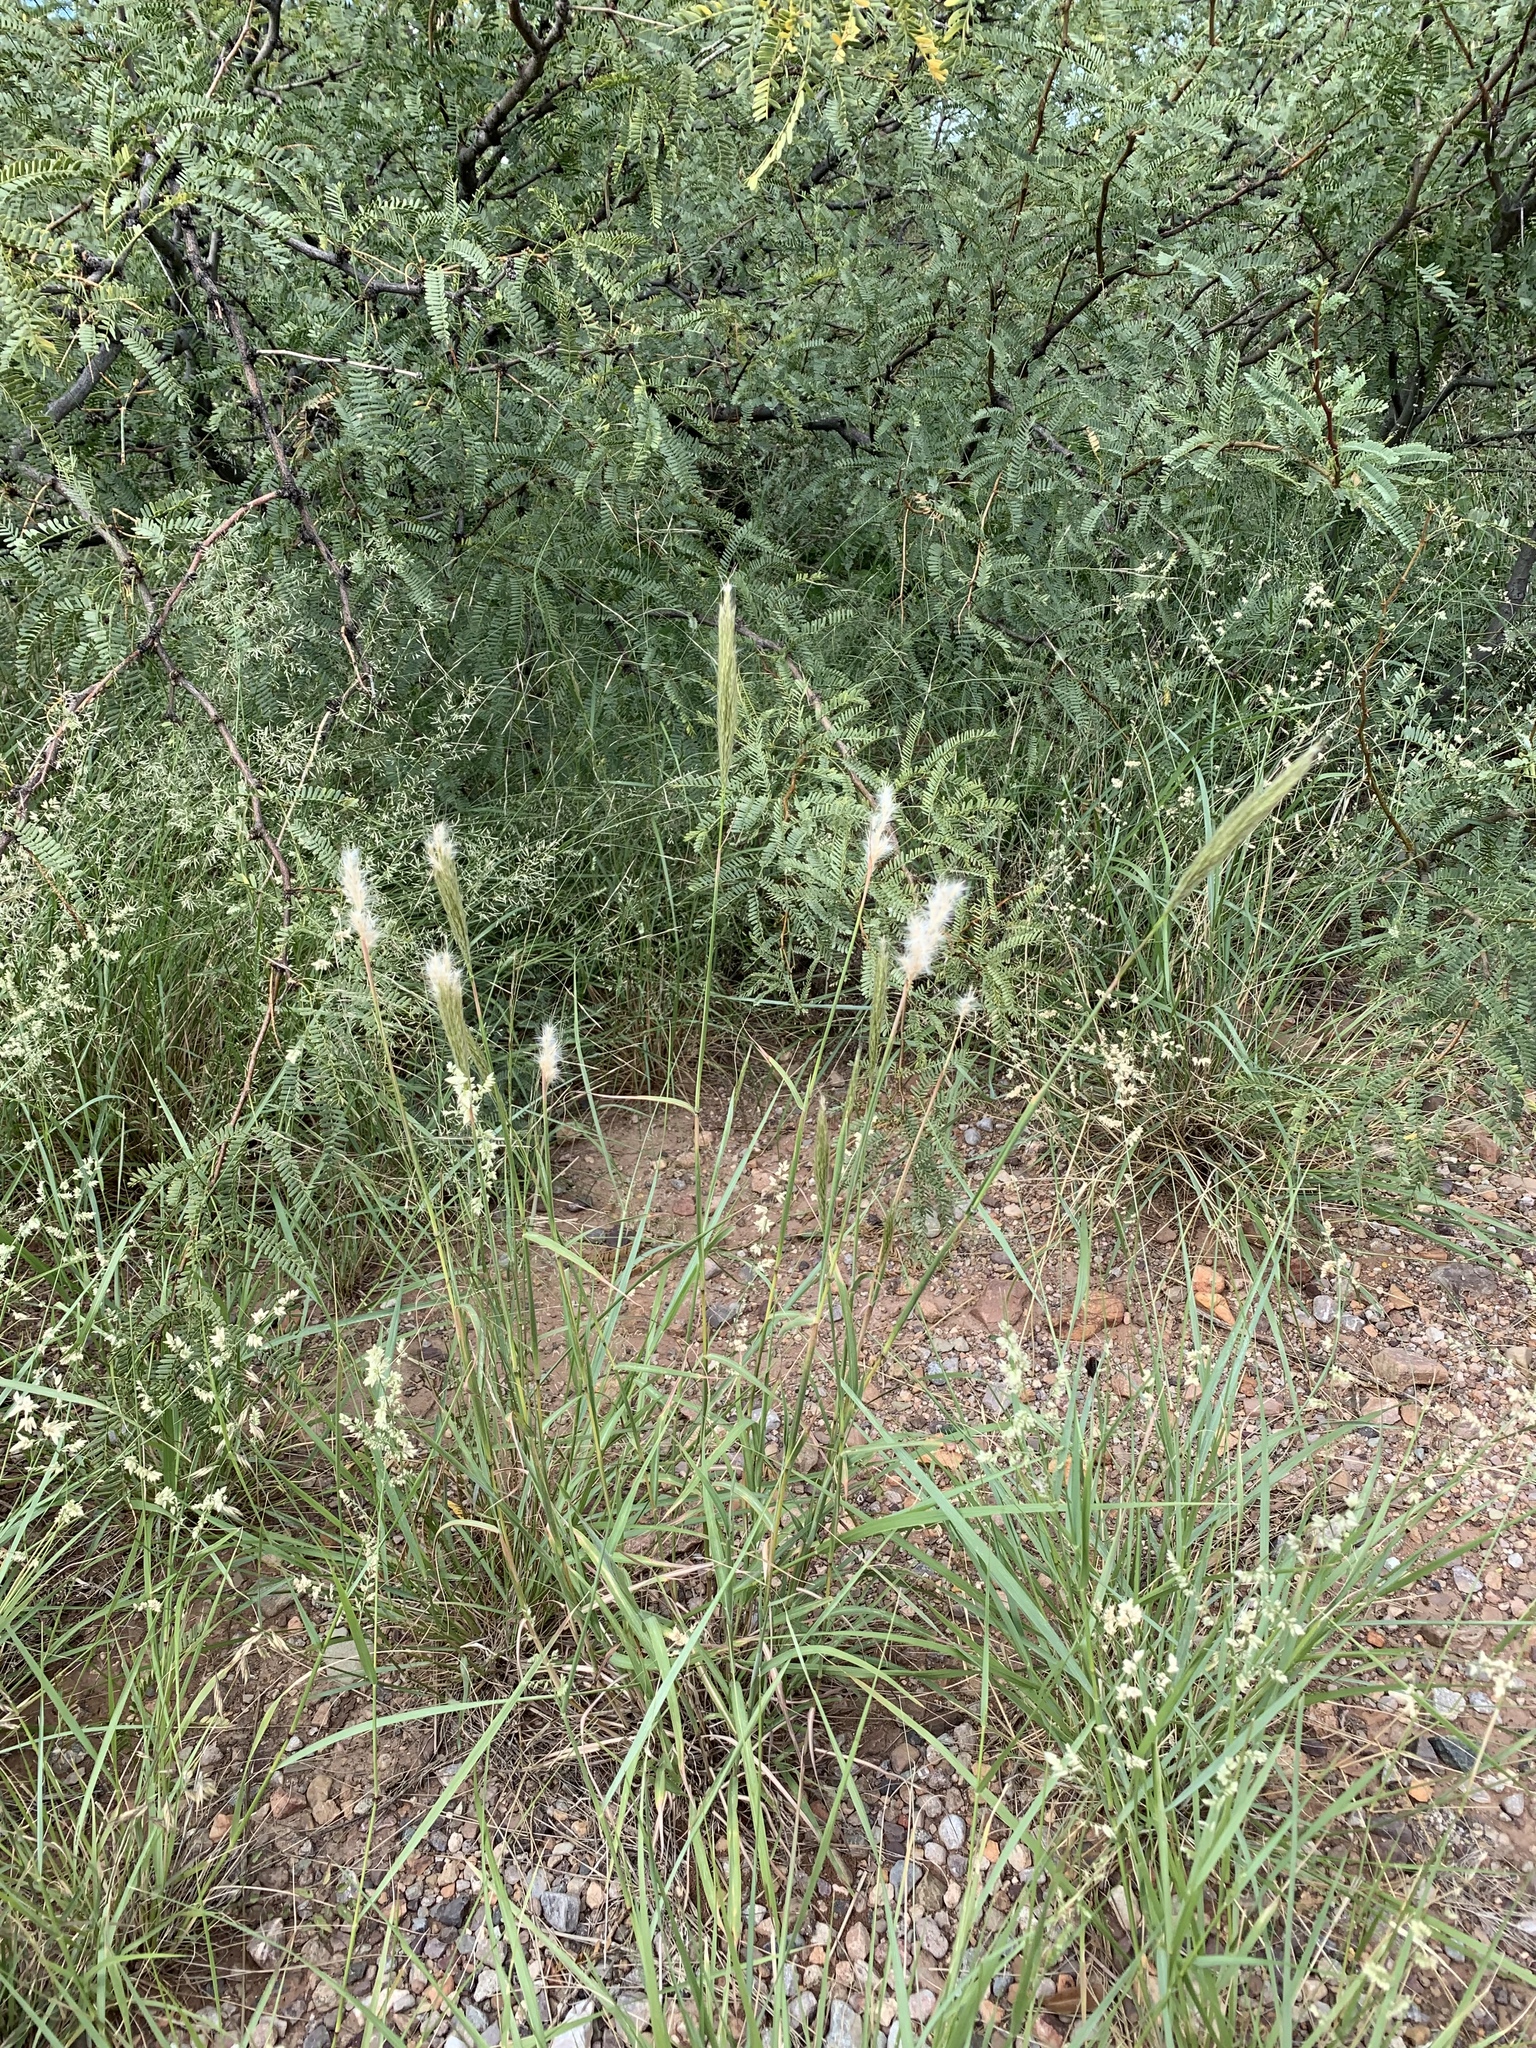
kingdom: Plantae
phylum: Tracheophyta
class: Liliopsida
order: Poales
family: Poaceae
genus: Bothriochloa
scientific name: Bothriochloa barbinodis
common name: Cane bluestem
